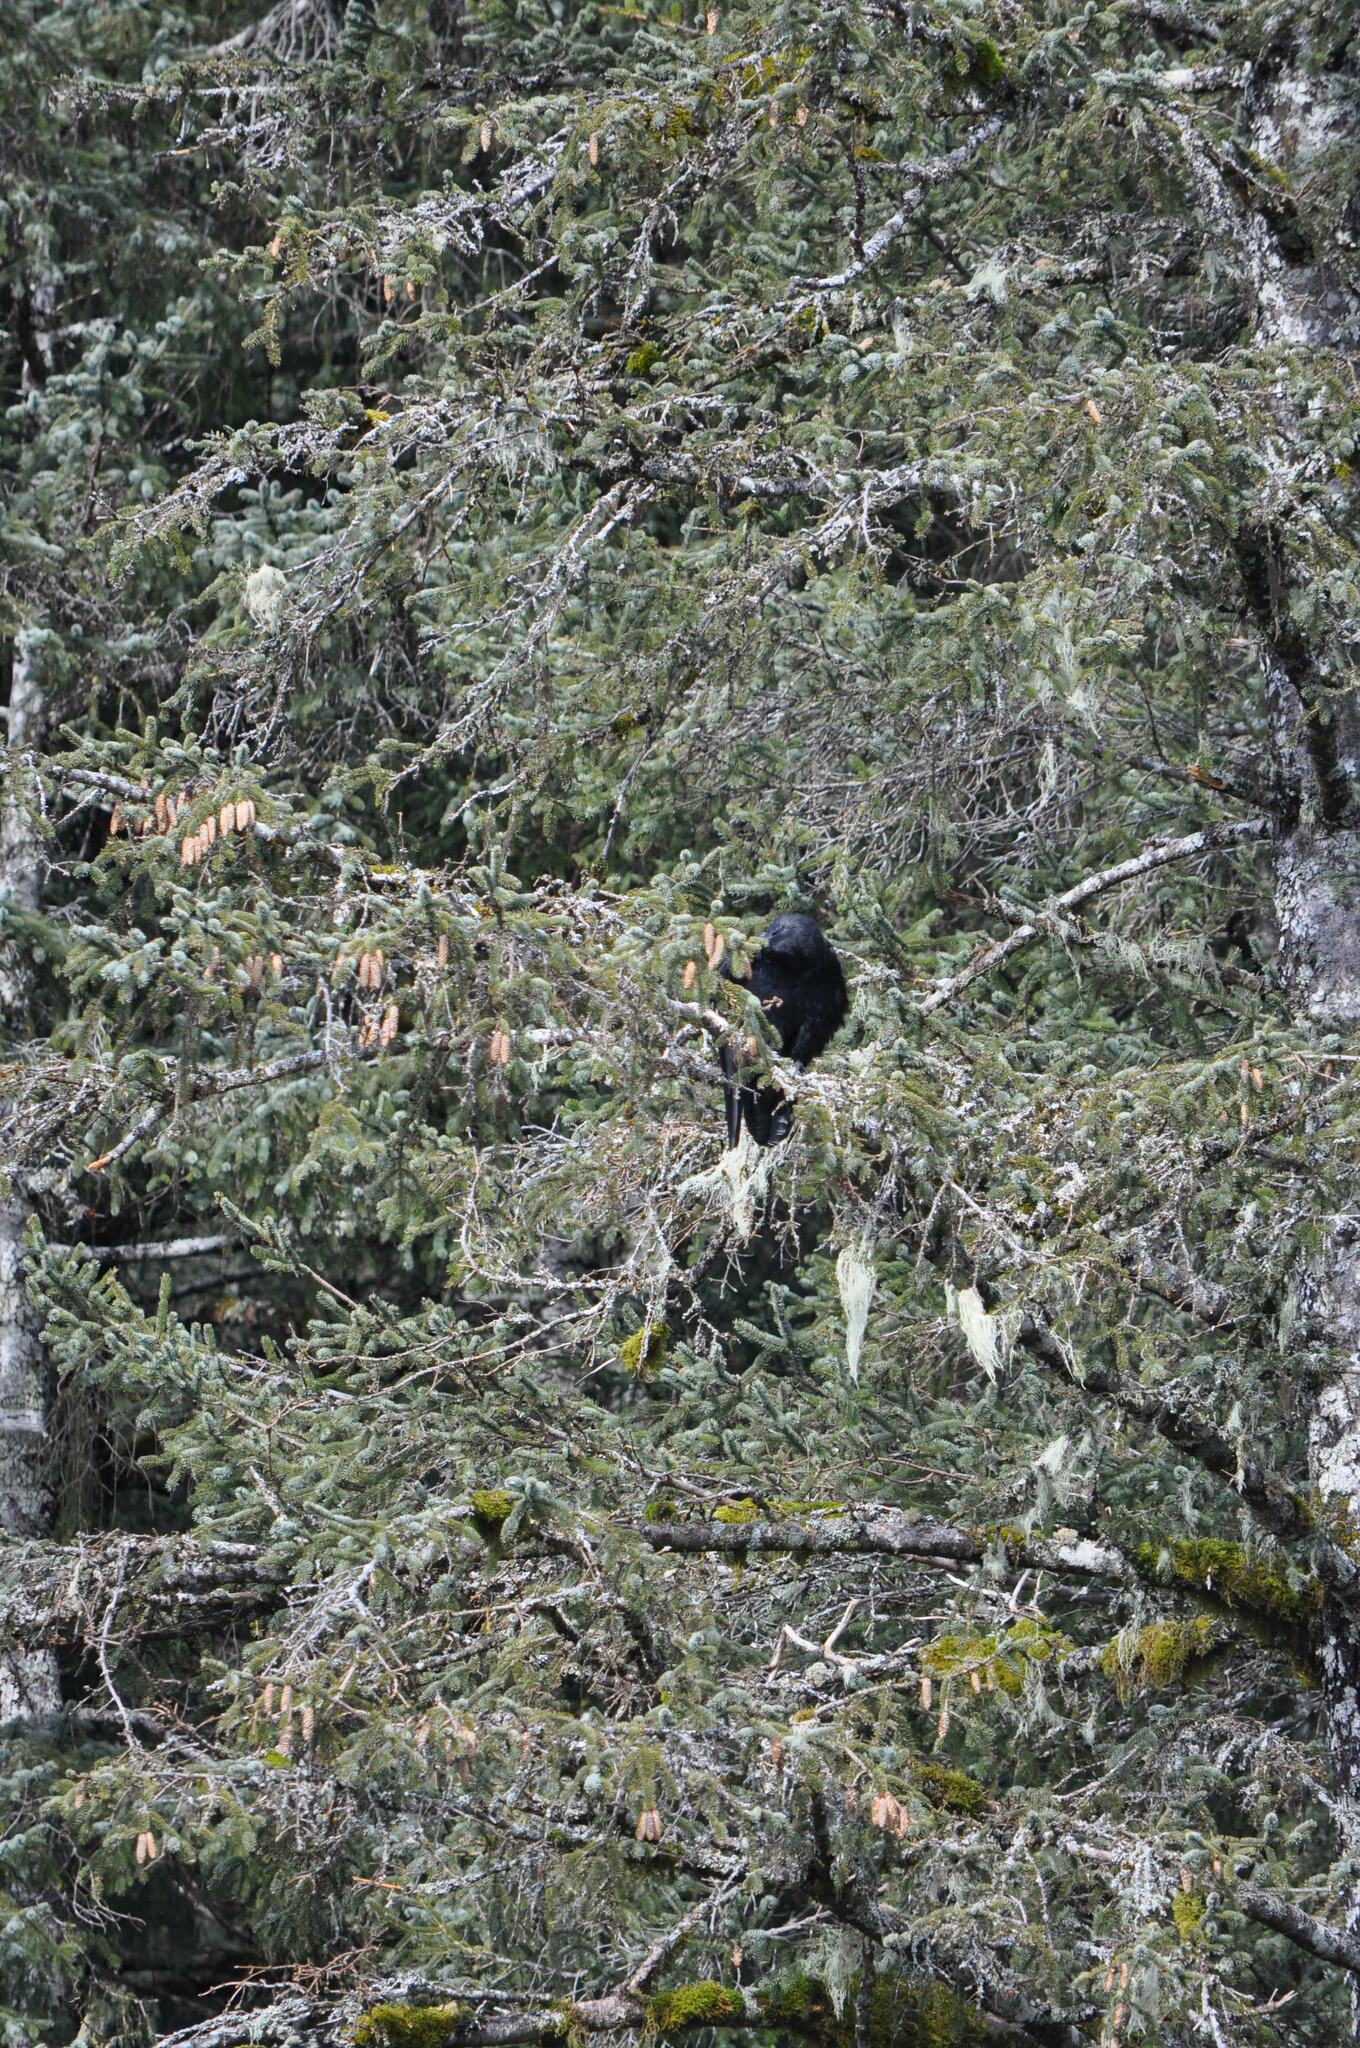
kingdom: Animalia
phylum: Chordata
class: Aves
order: Passeriformes
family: Corvidae
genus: Corvus
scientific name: Corvus corax
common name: Common raven
